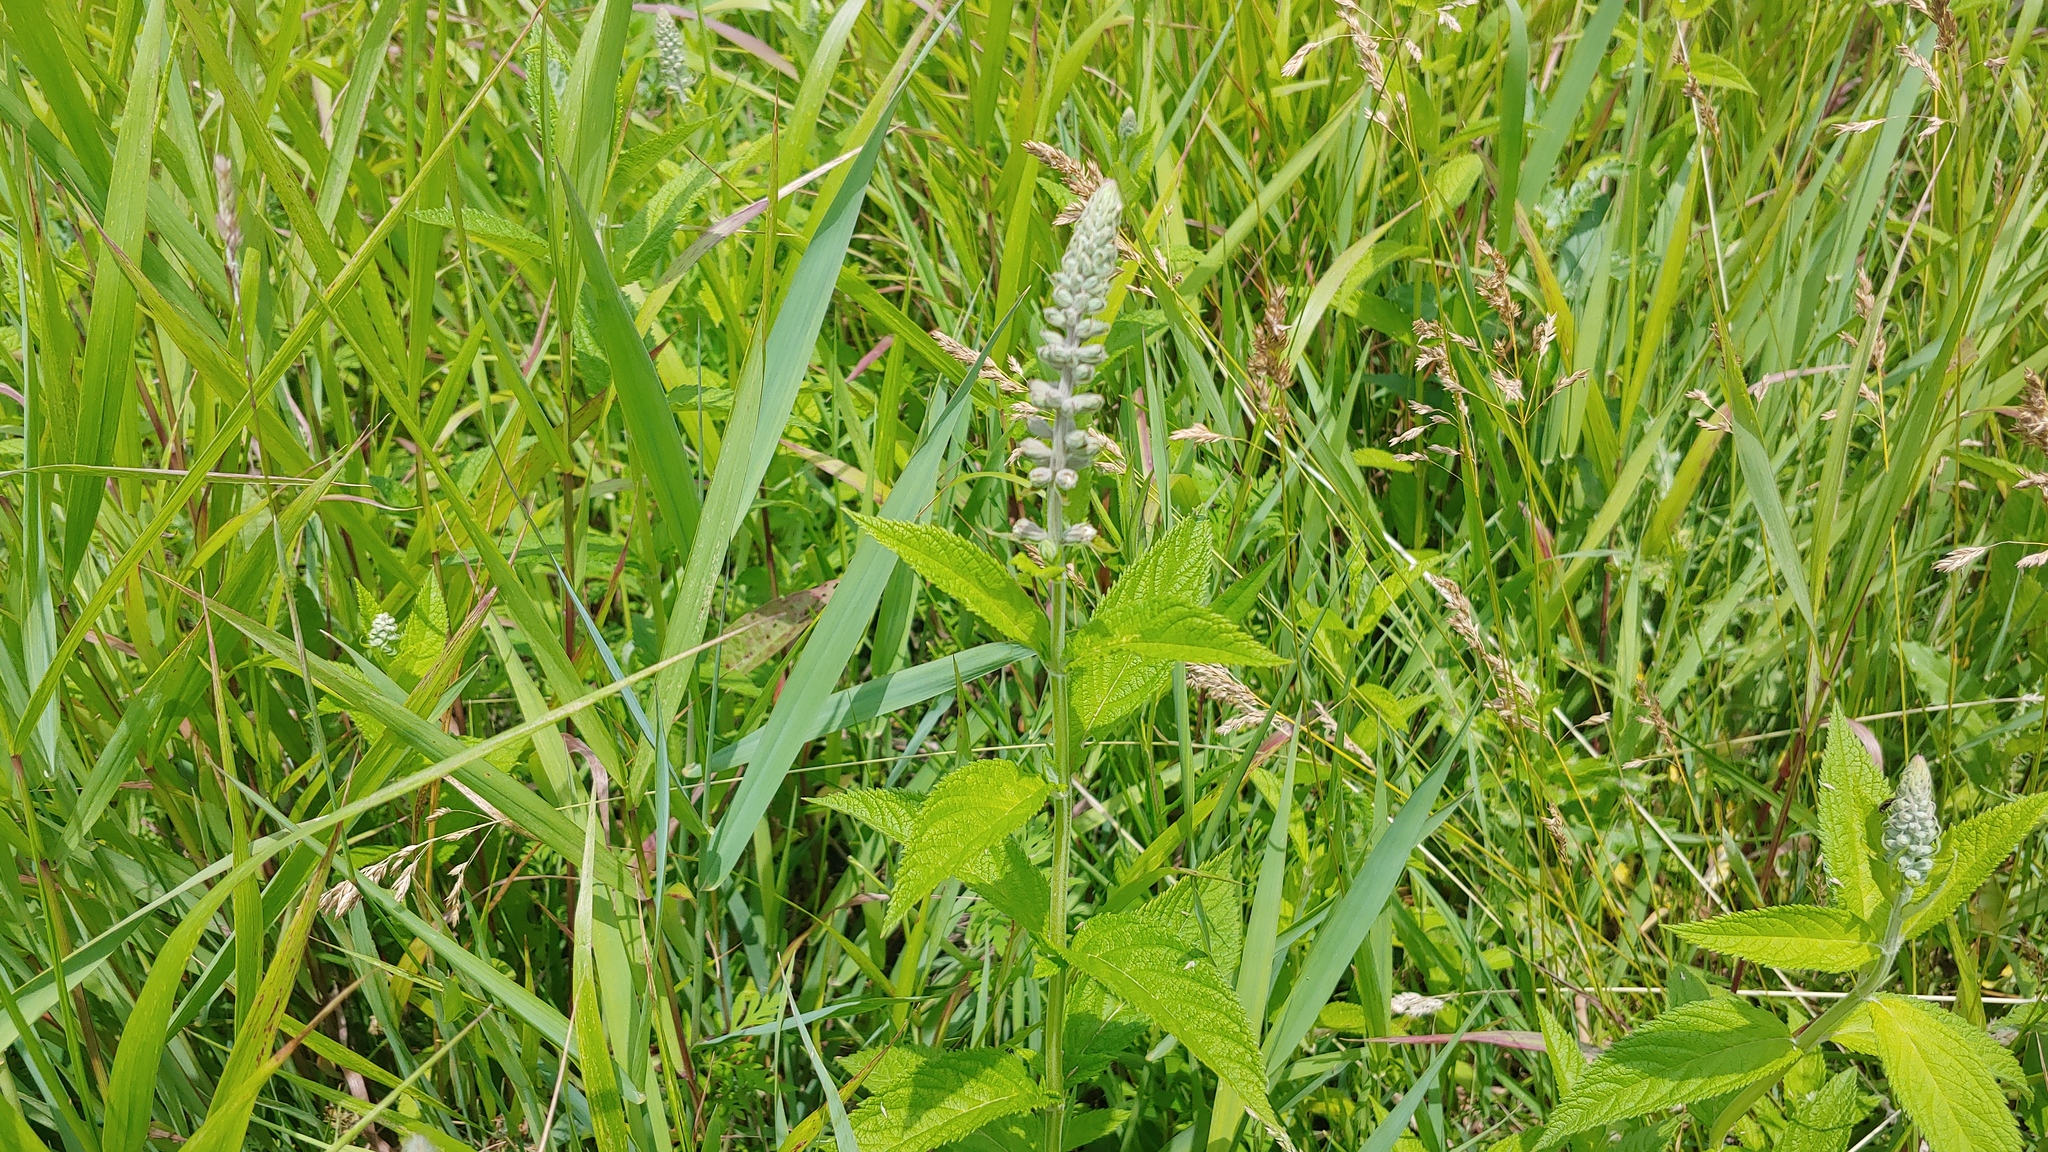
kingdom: Plantae
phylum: Tracheophyta
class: Magnoliopsida
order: Lamiales
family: Lamiaceae
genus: Teucrium
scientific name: Teucrium canadense
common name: American germander
